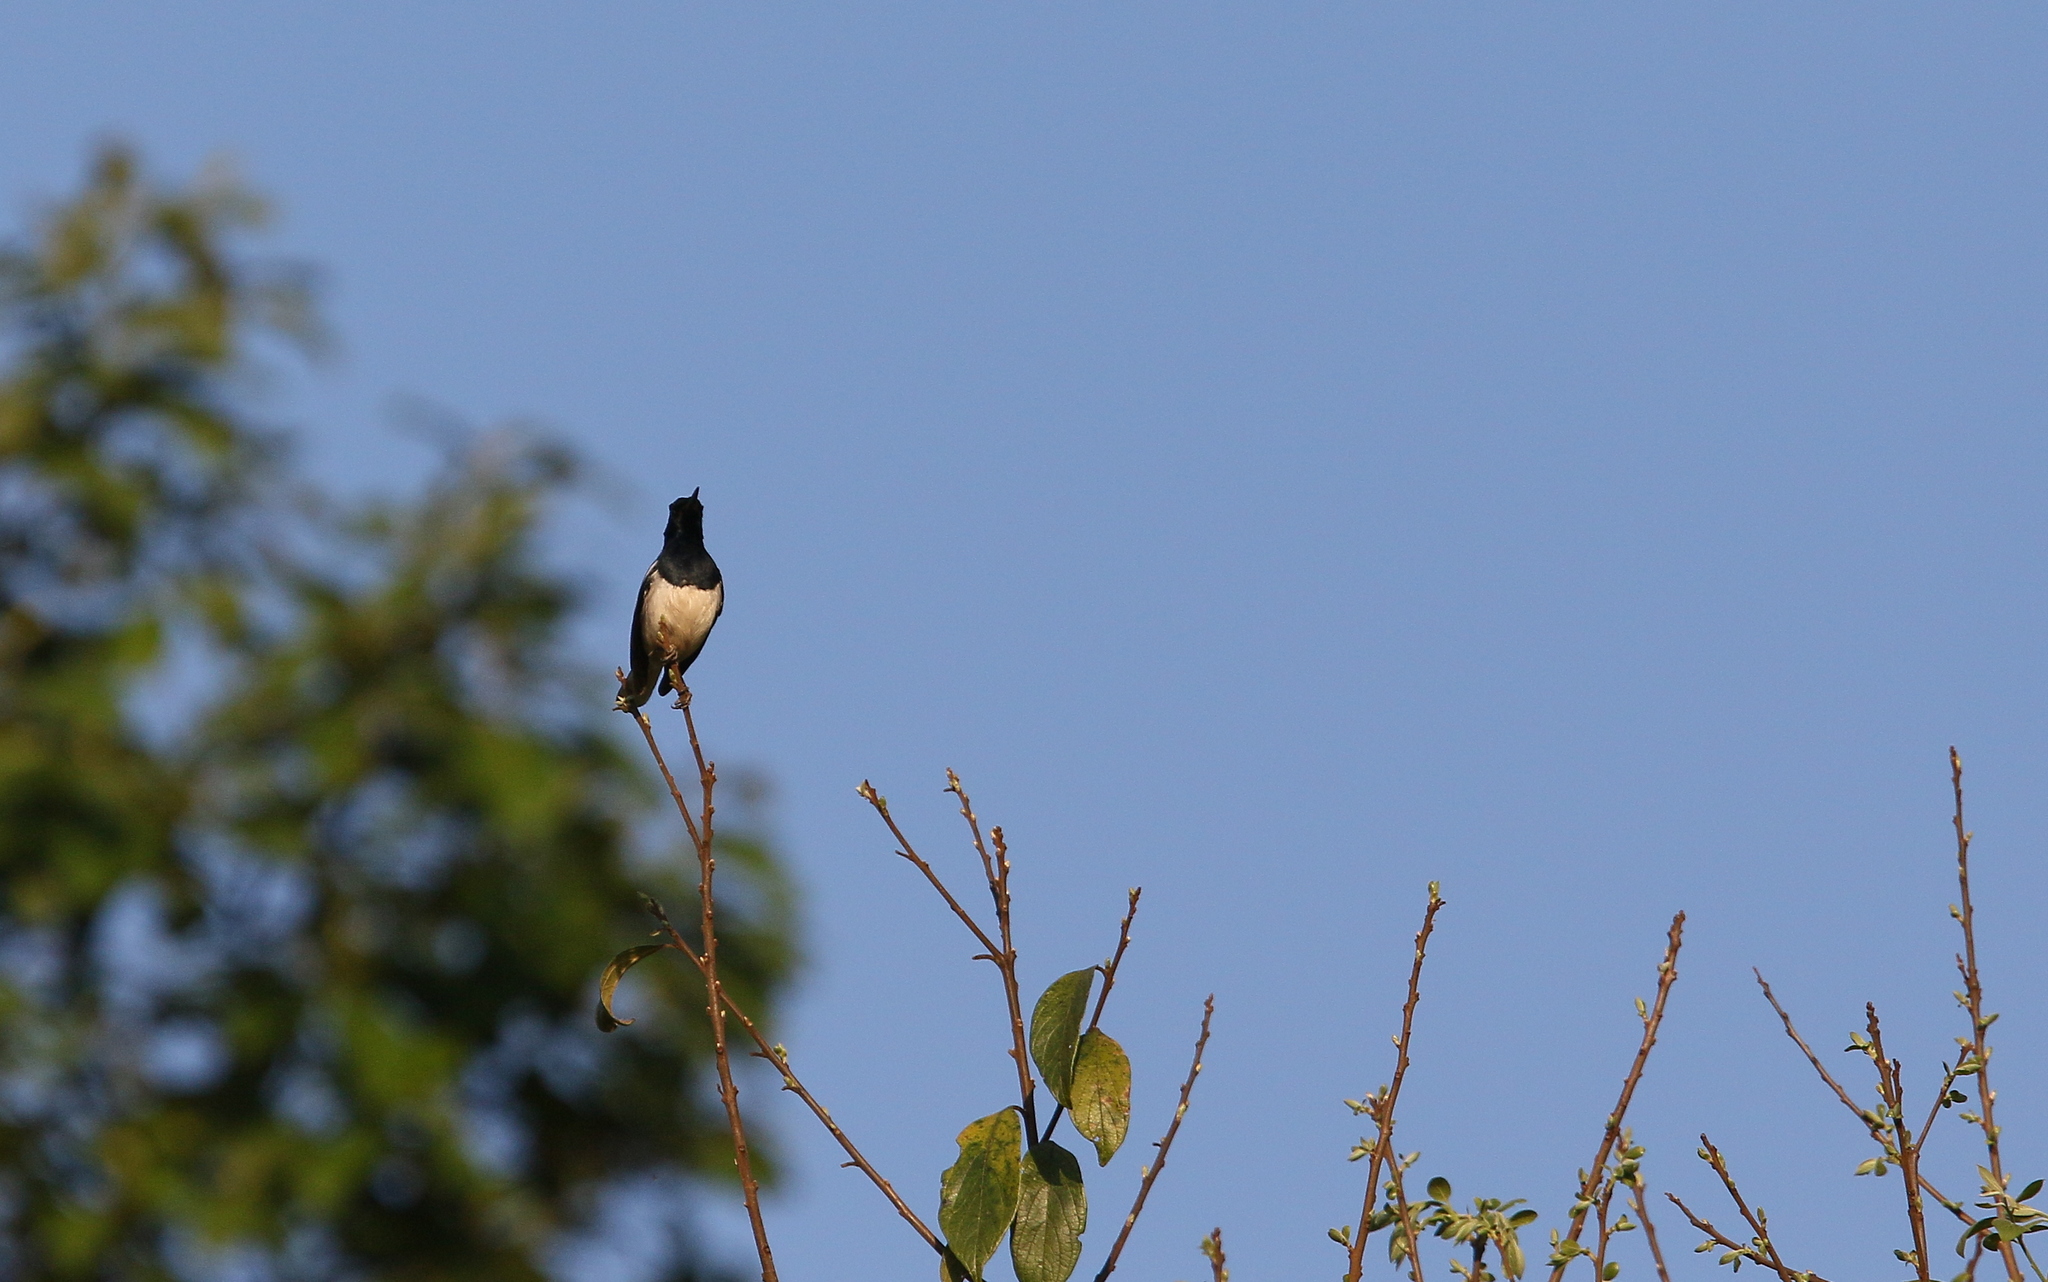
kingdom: Animalia
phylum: Chordata
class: Aves
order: Passeriformes
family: Muscicapidae
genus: Copsychus
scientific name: Copsychus saularis
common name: Oriental magpie-robin
